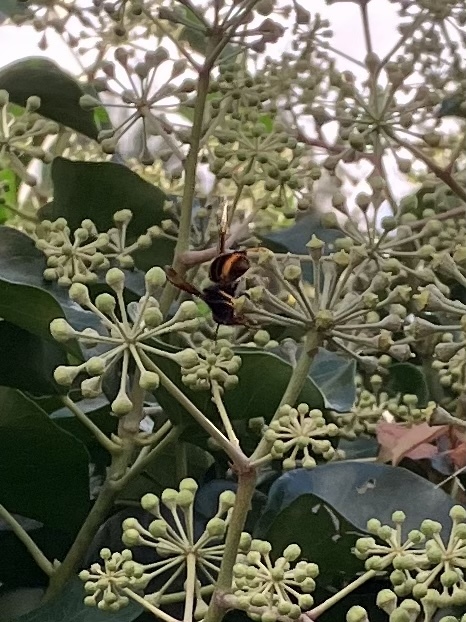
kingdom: Animalia
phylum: Arthropoda
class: Insecta
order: Hymenoptera
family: Vespidae
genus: Vespa
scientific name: Vespa velutina
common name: Asian hornet
